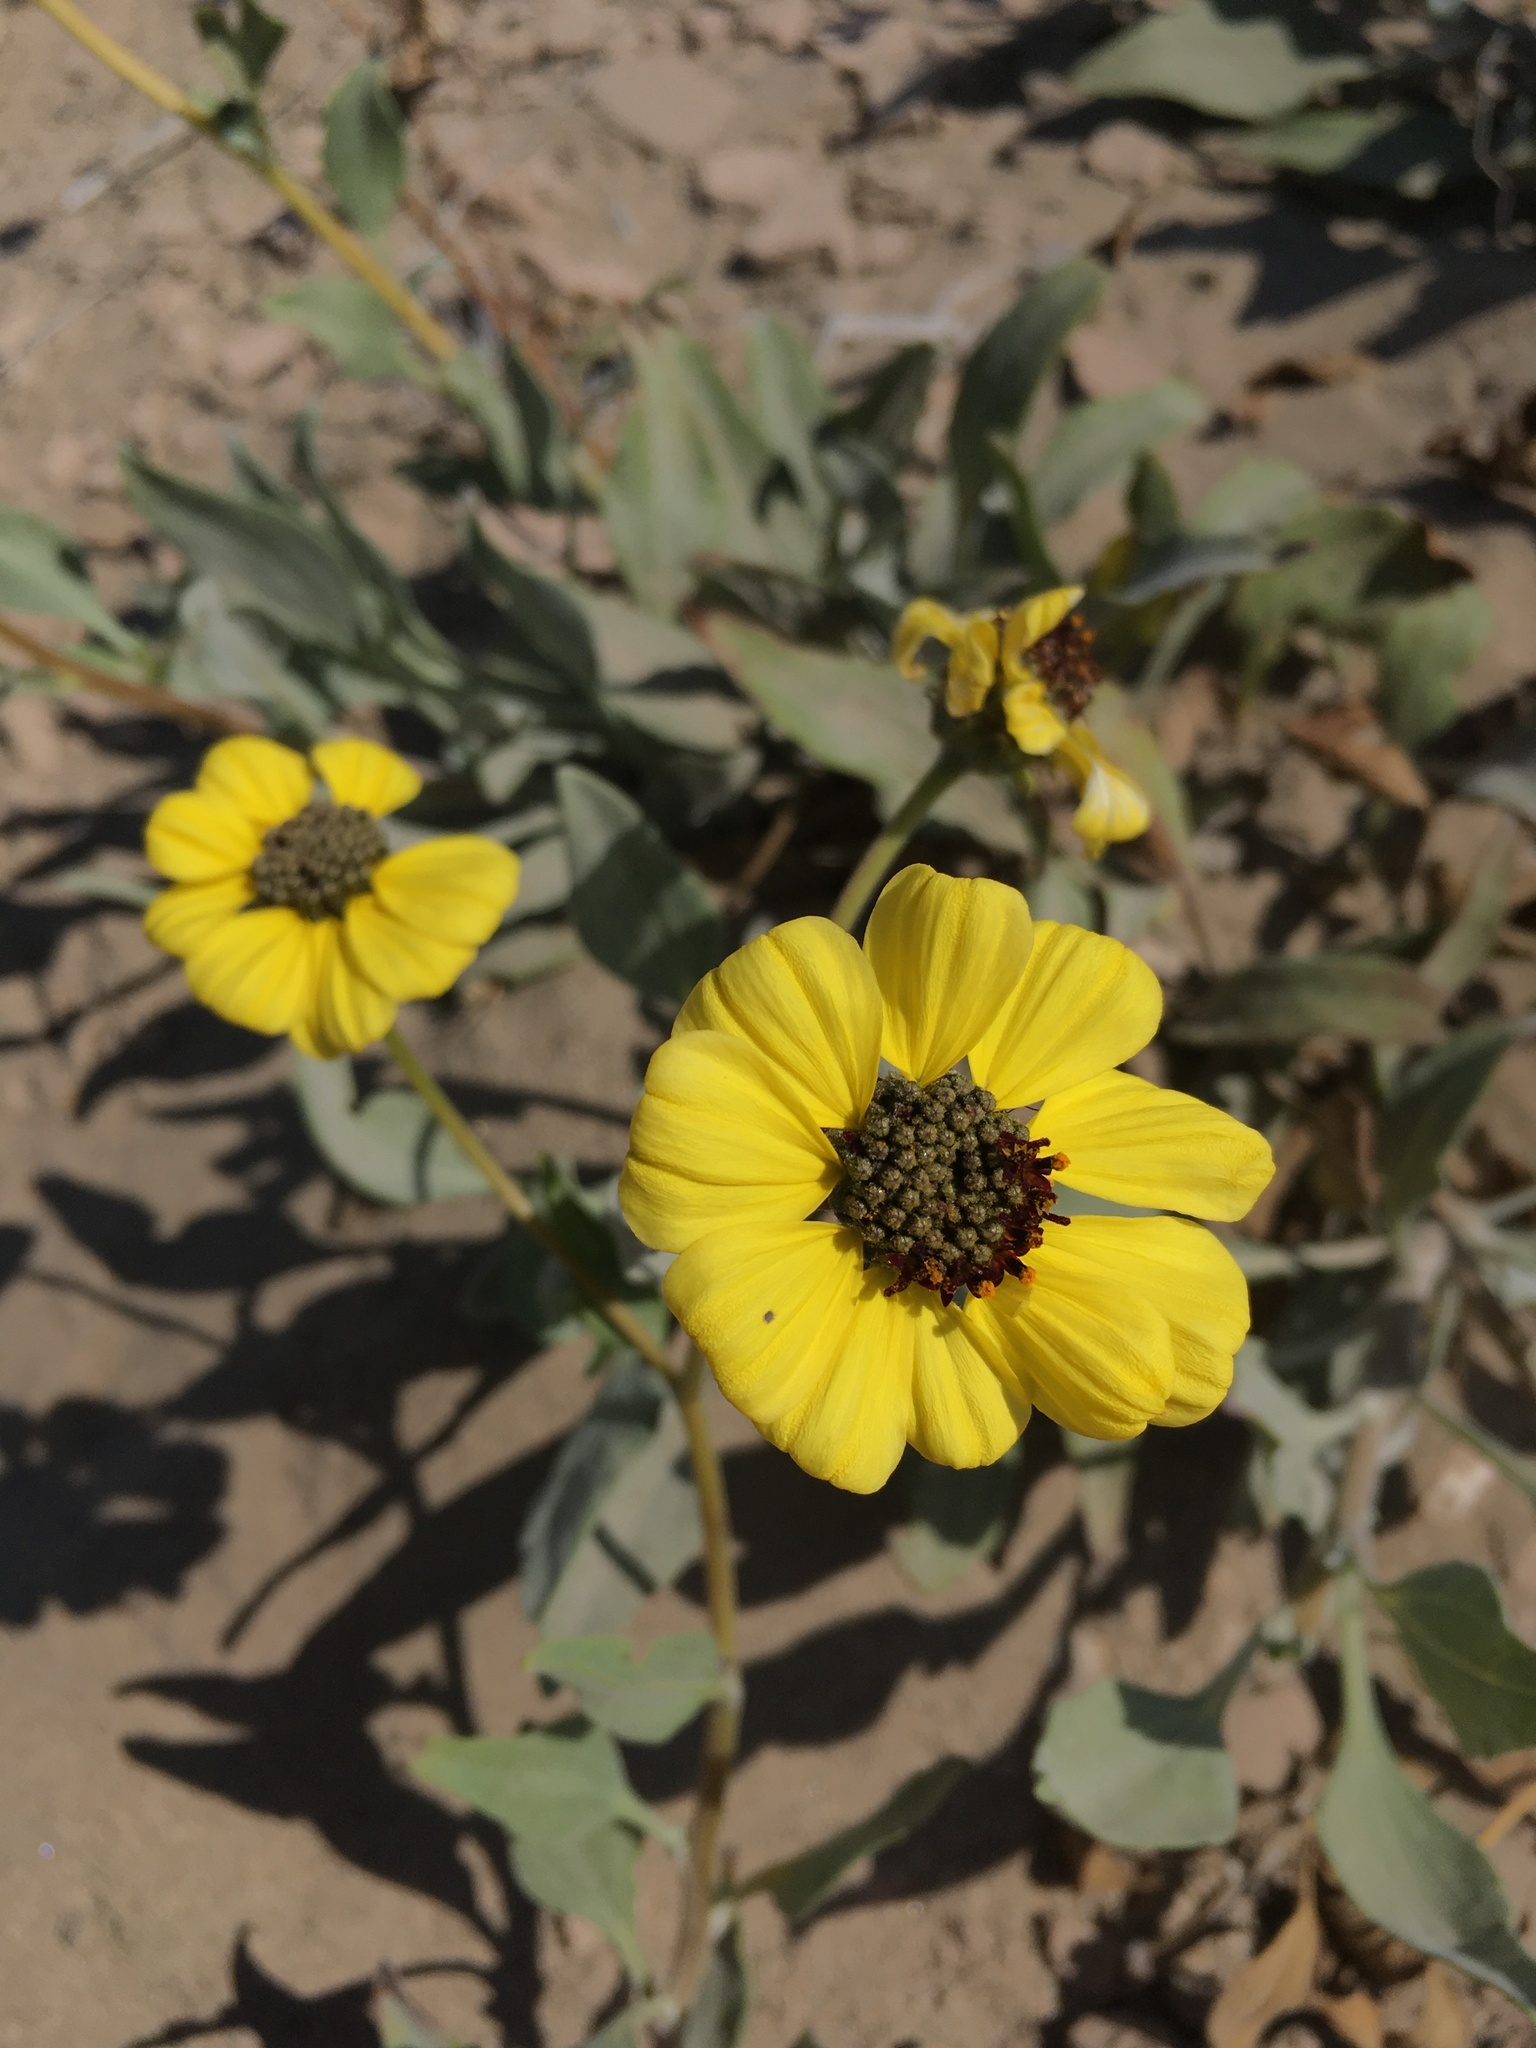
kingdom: Plantae
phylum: Tracheophyta
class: Magnoliopsida
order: Asterales
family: Asteraceae
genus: Encelia
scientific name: Encelia canescens
